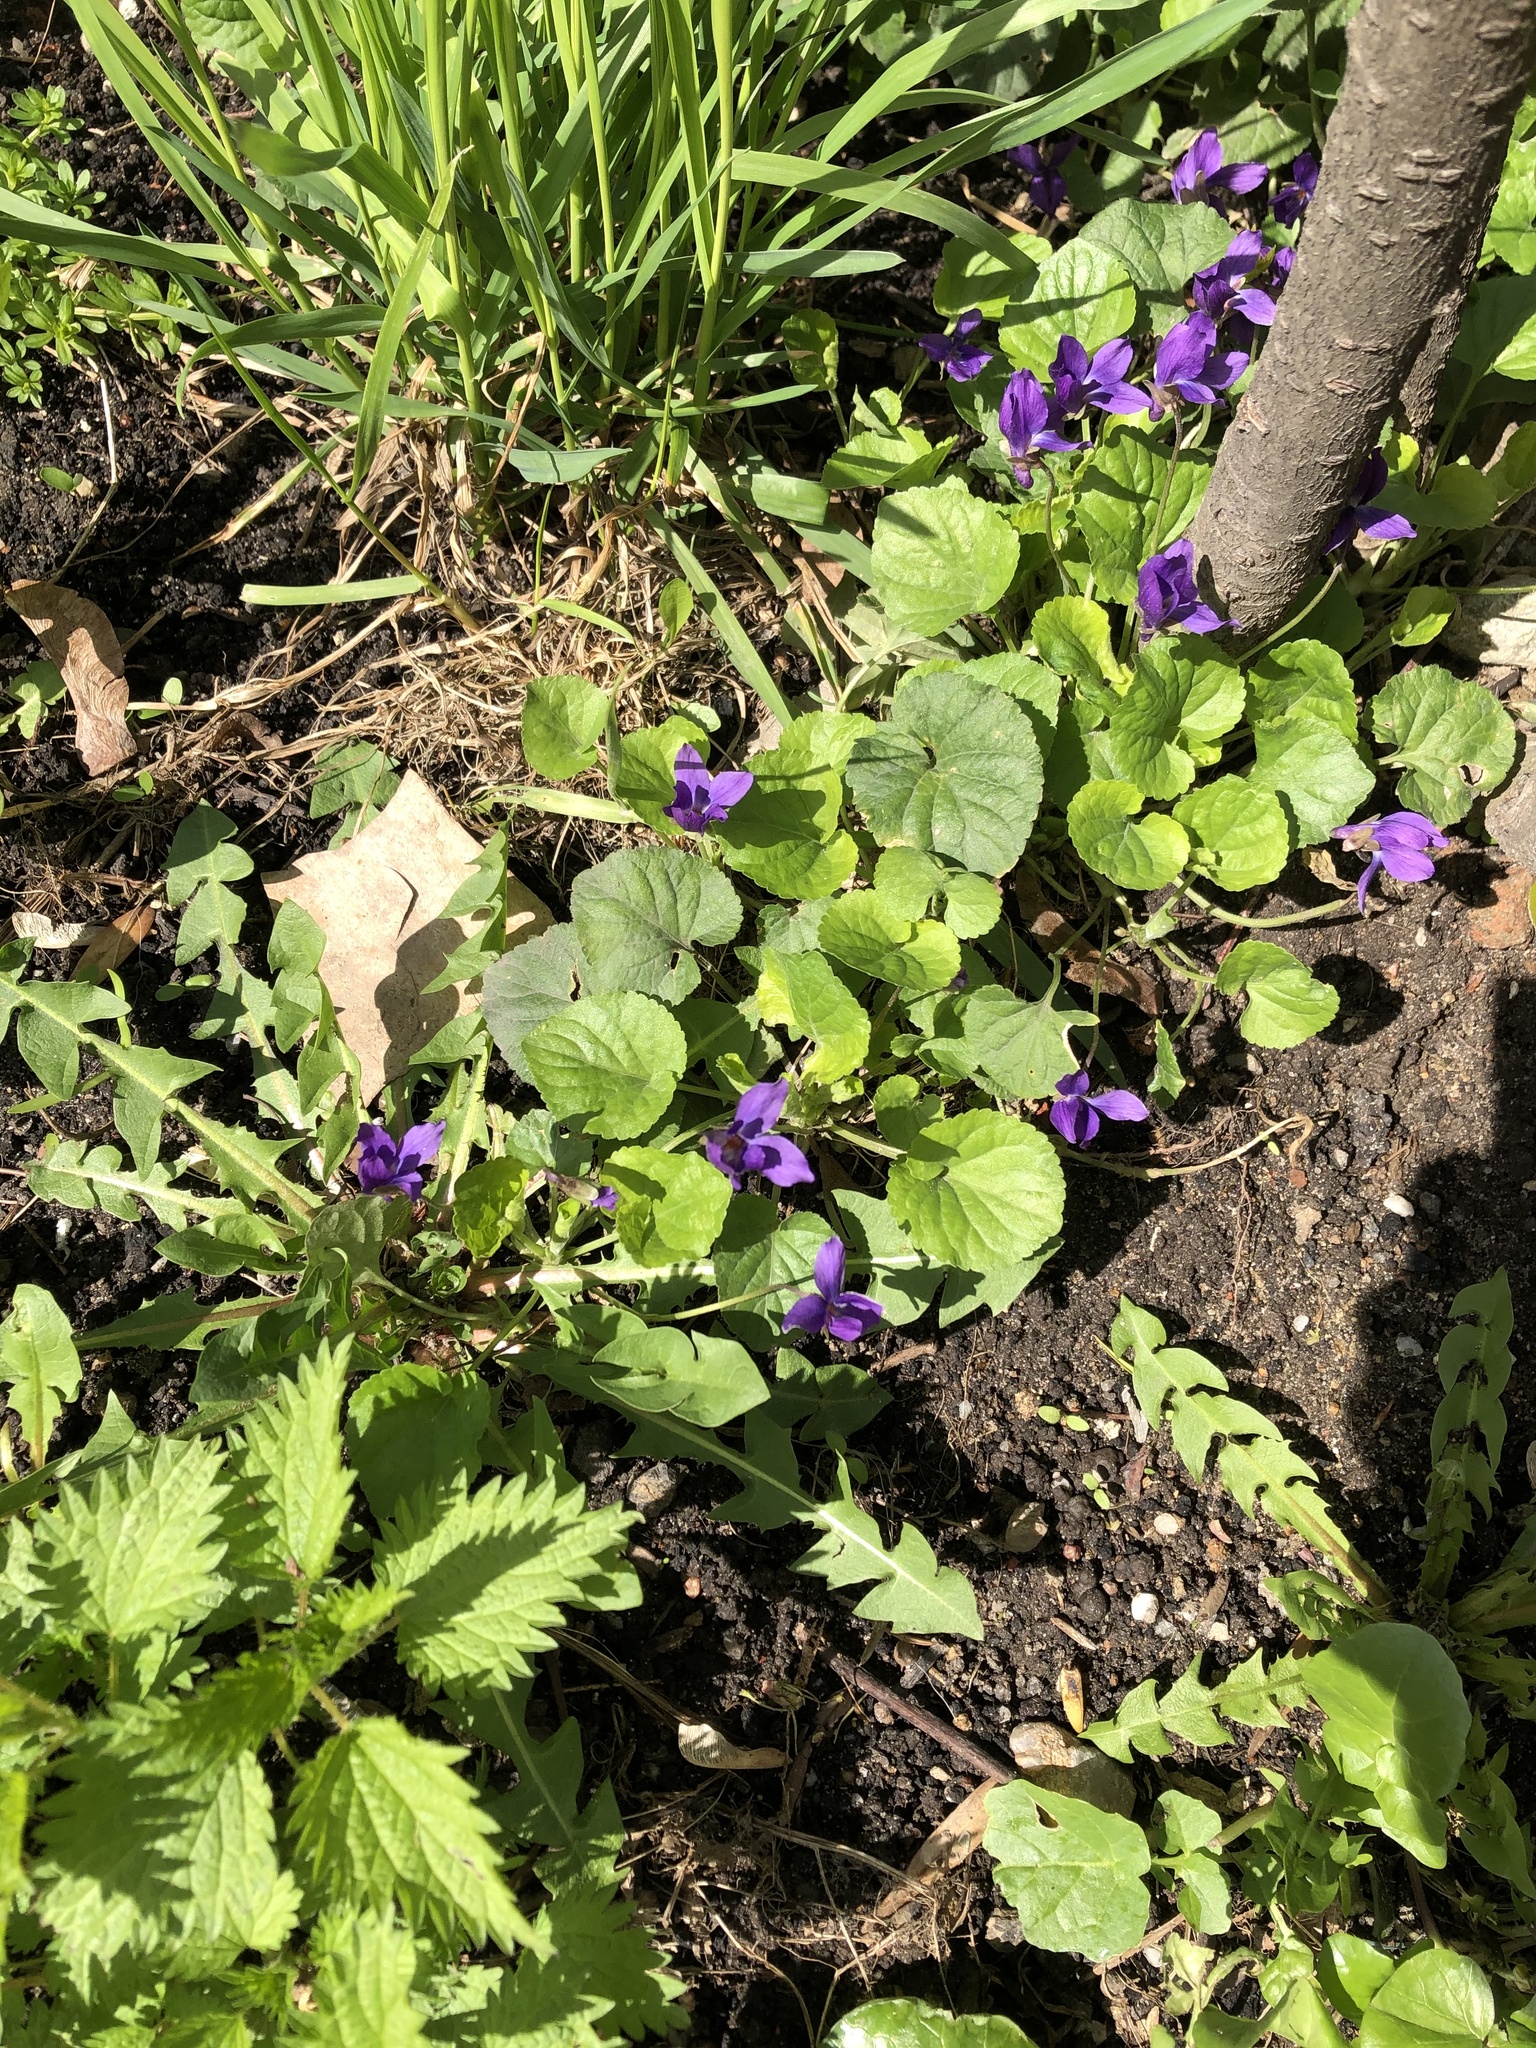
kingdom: Plantae
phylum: Tracheophyta
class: Magnoliopsida
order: Malpighiales
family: Violaceae
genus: Viola
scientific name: Viola odorata
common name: Sweet violet
